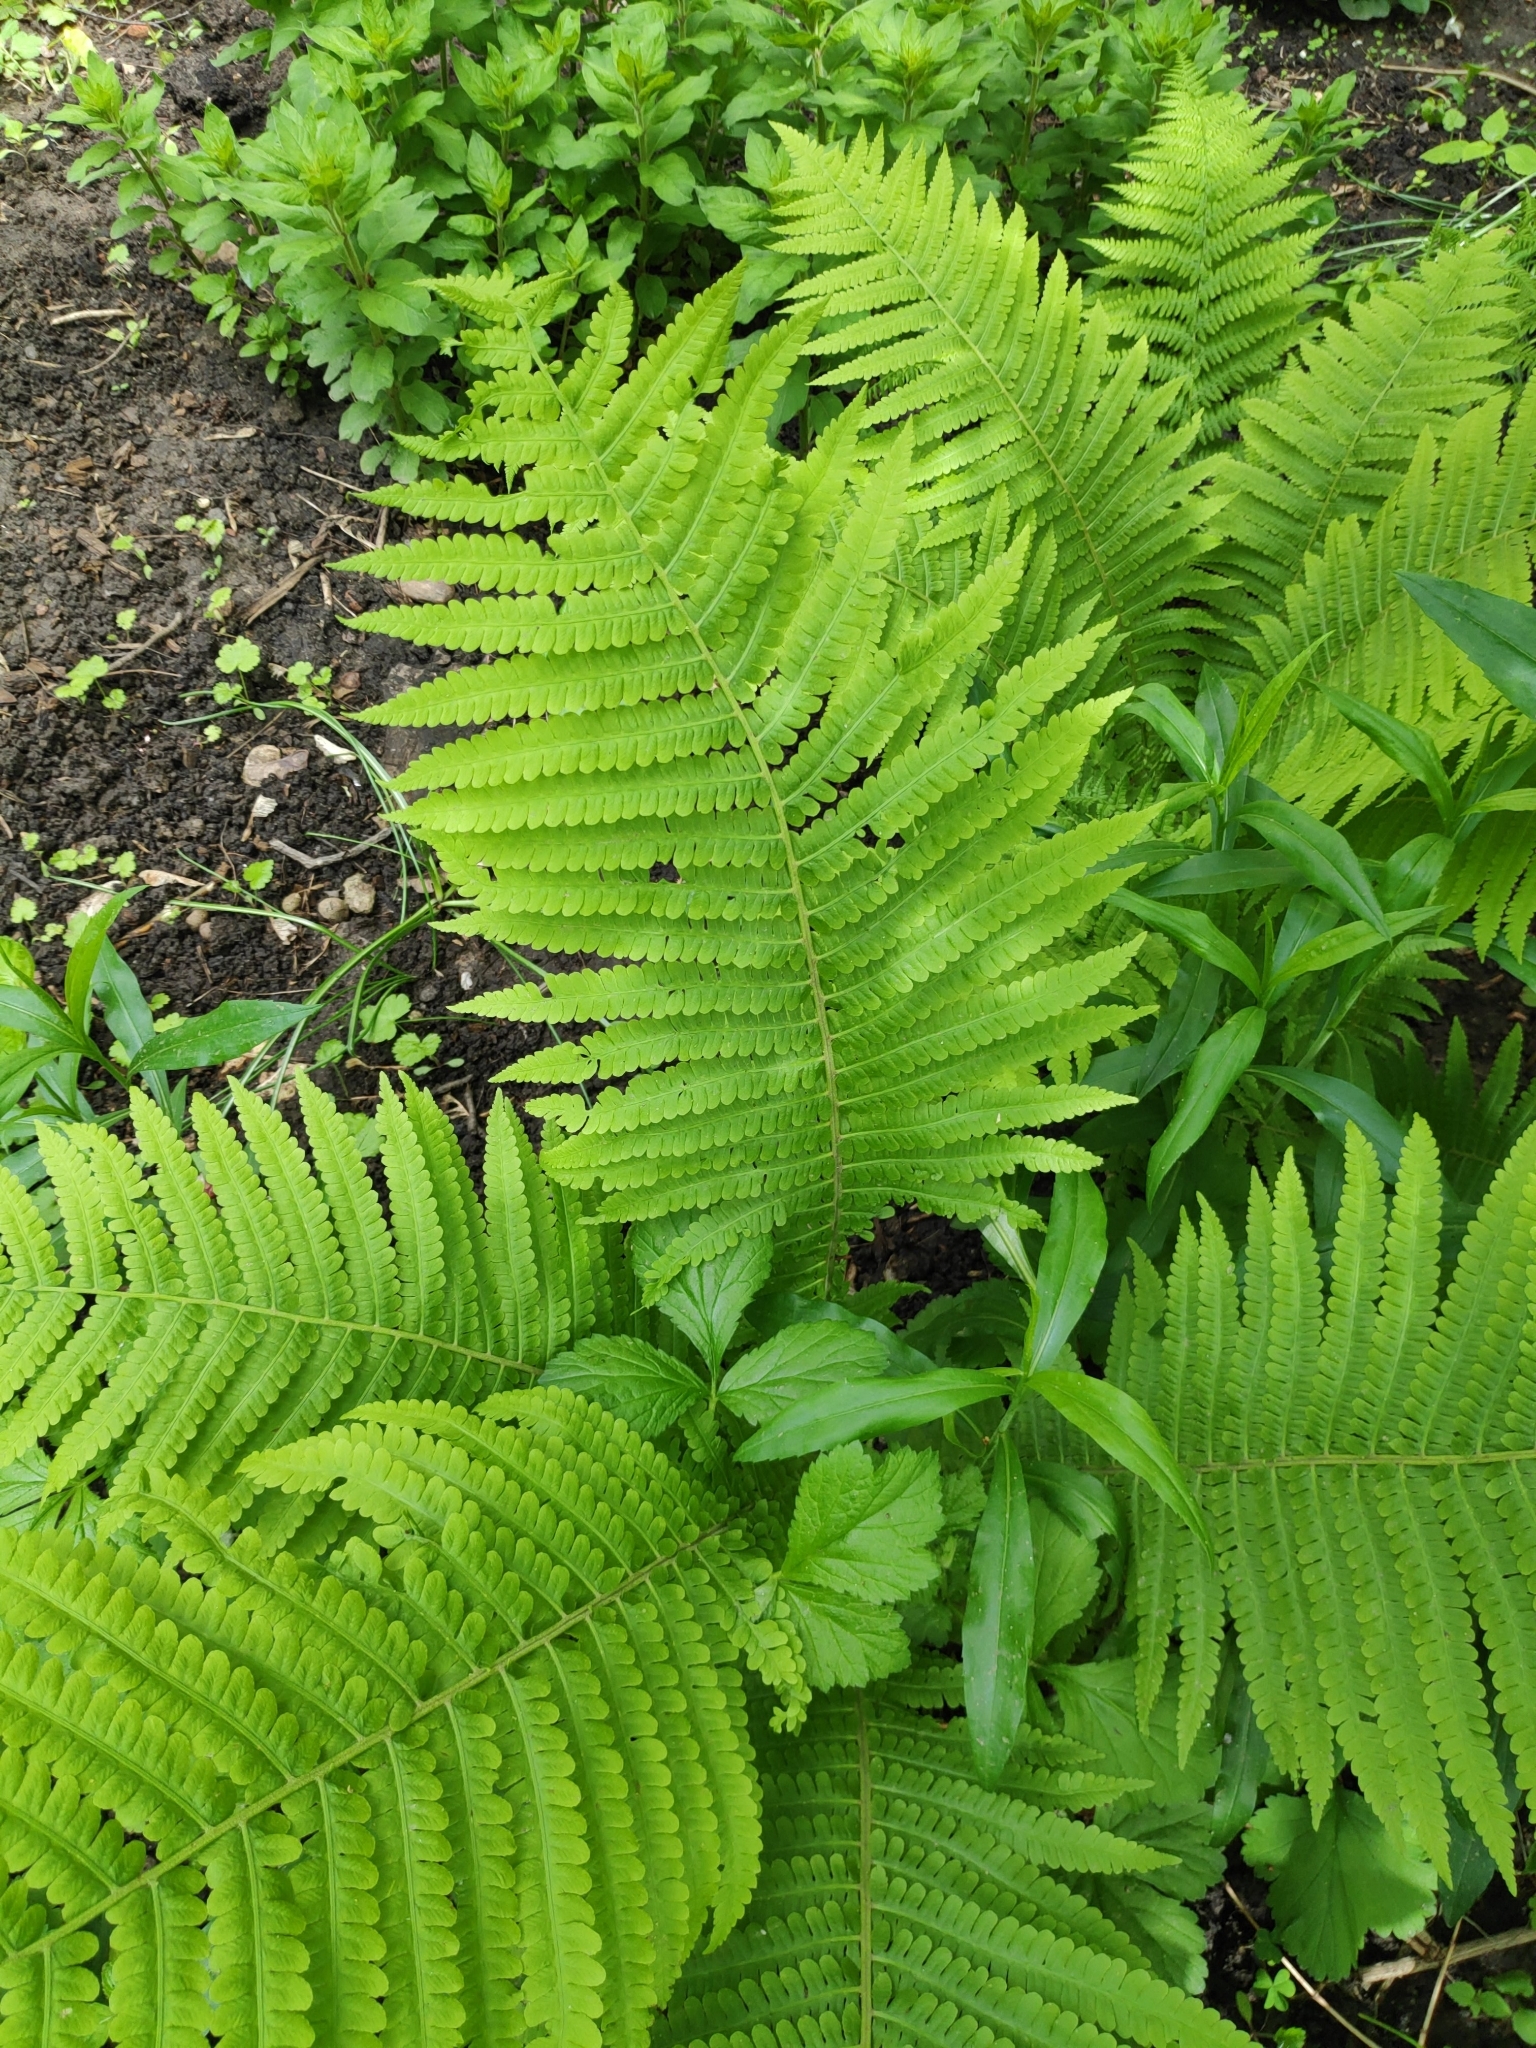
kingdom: Plantae
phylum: Tracheophyta
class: Polypodiopsida
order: Polypodiales
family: Onocleaceae
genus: Matteuccia
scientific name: Matteuccia struthiopteris
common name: Ostrich fern
